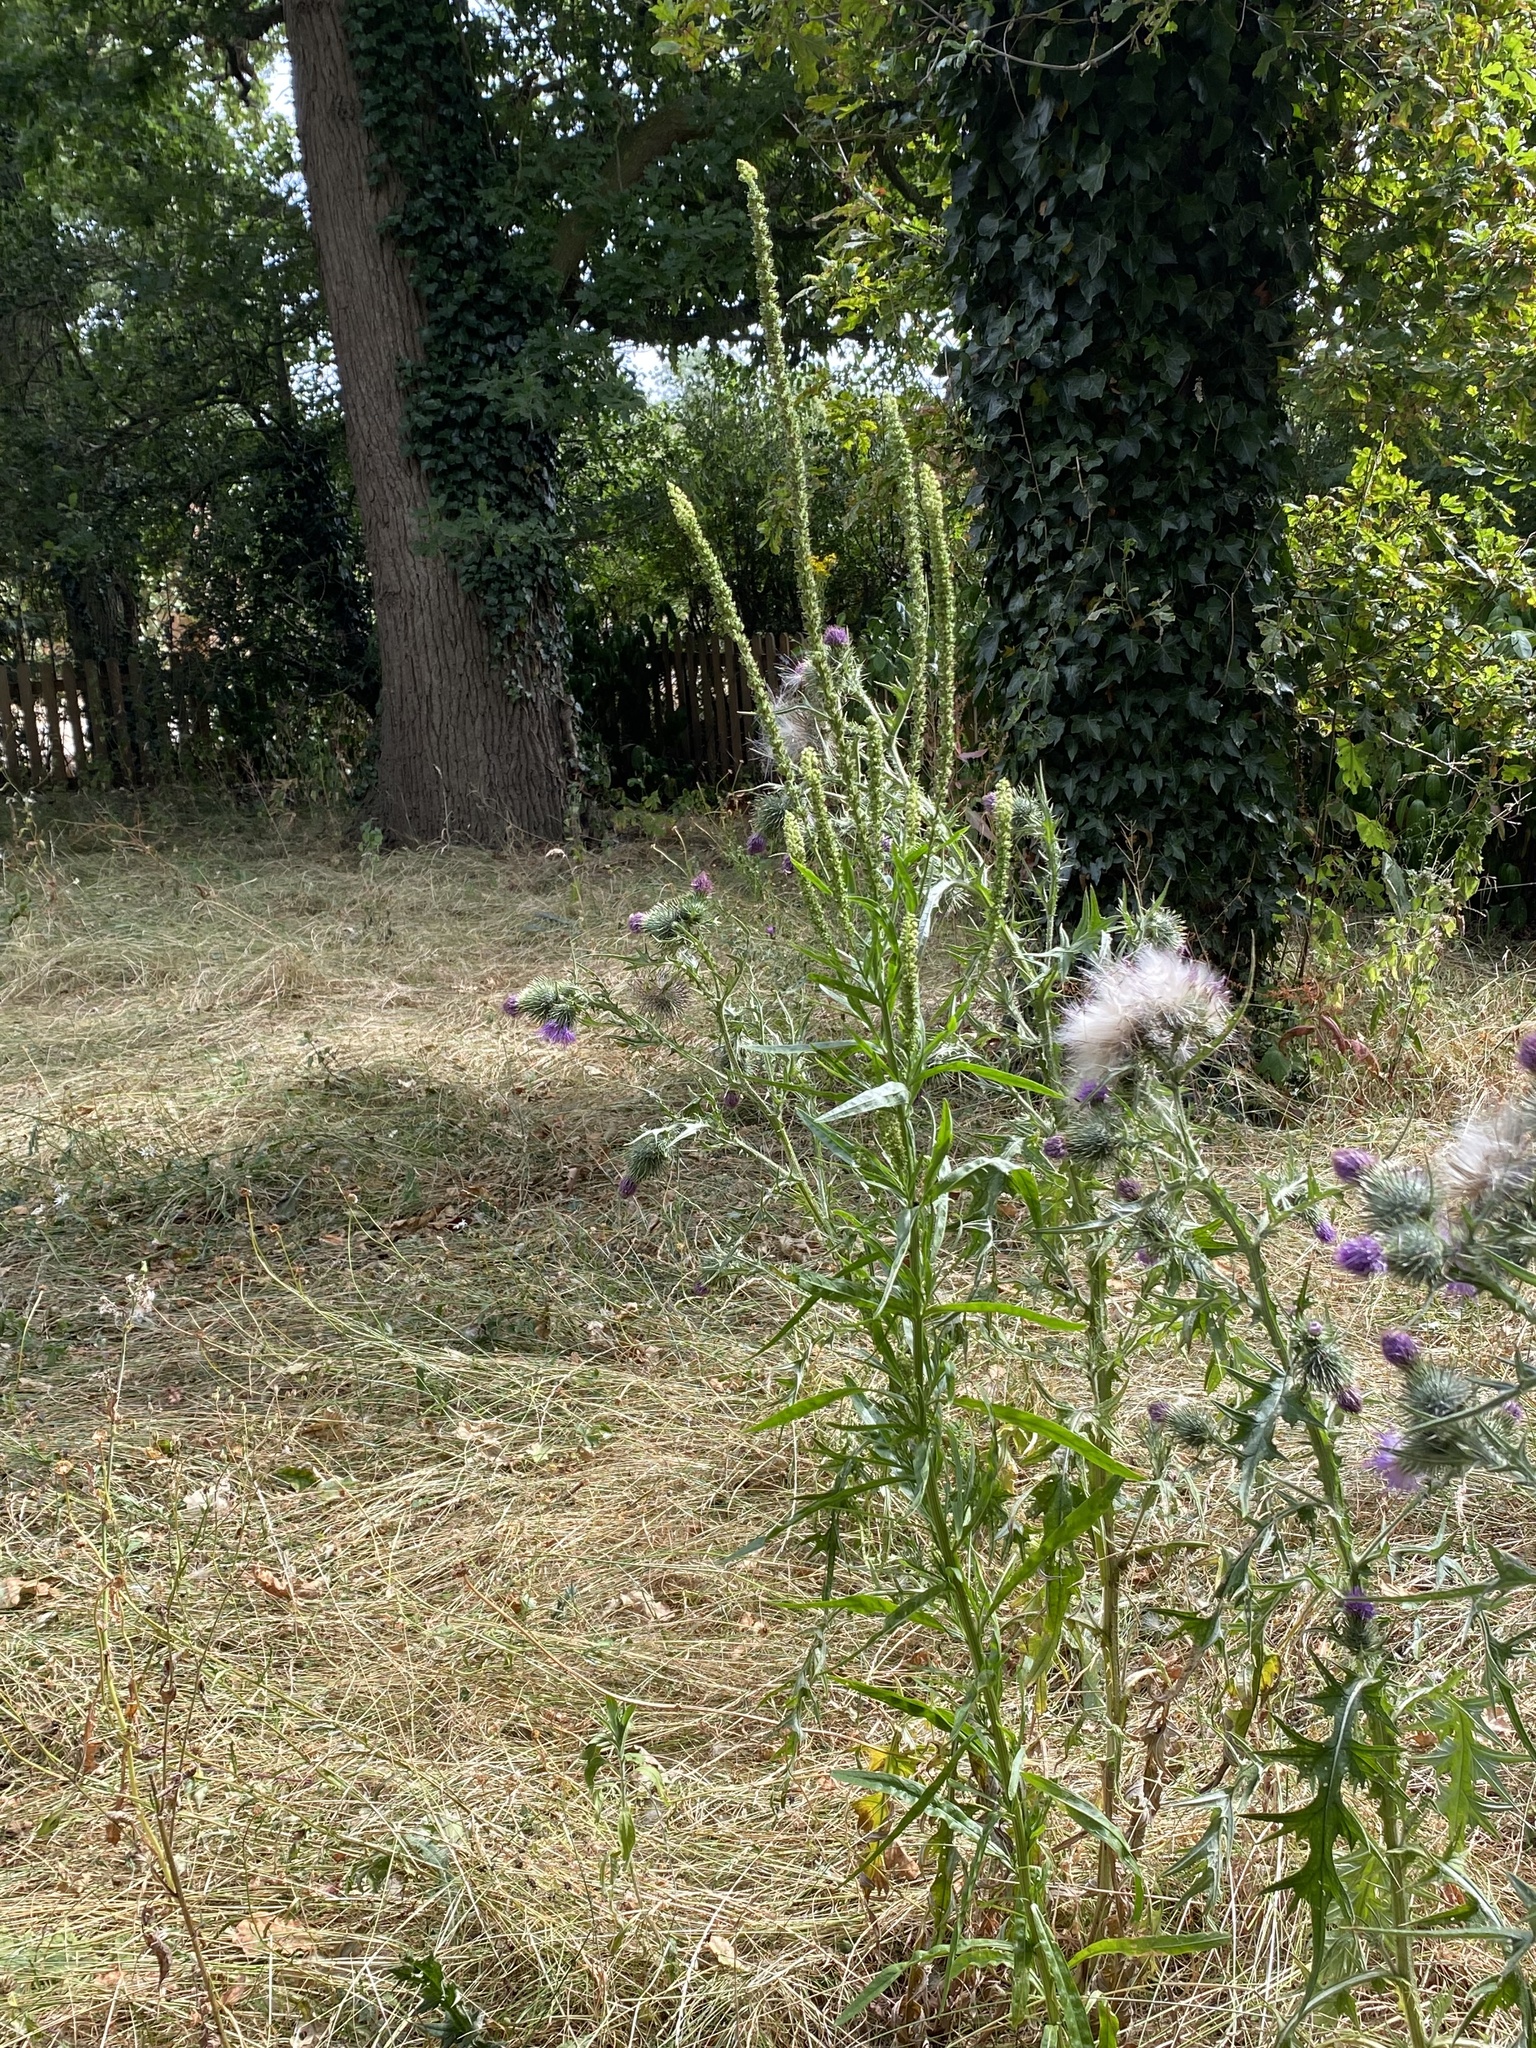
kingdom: Plantae
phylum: Tracheophyta
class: Magnoliopsida
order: Brassicales
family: Resedaceae
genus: Reseda
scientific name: Reseda luteola
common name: Weld
